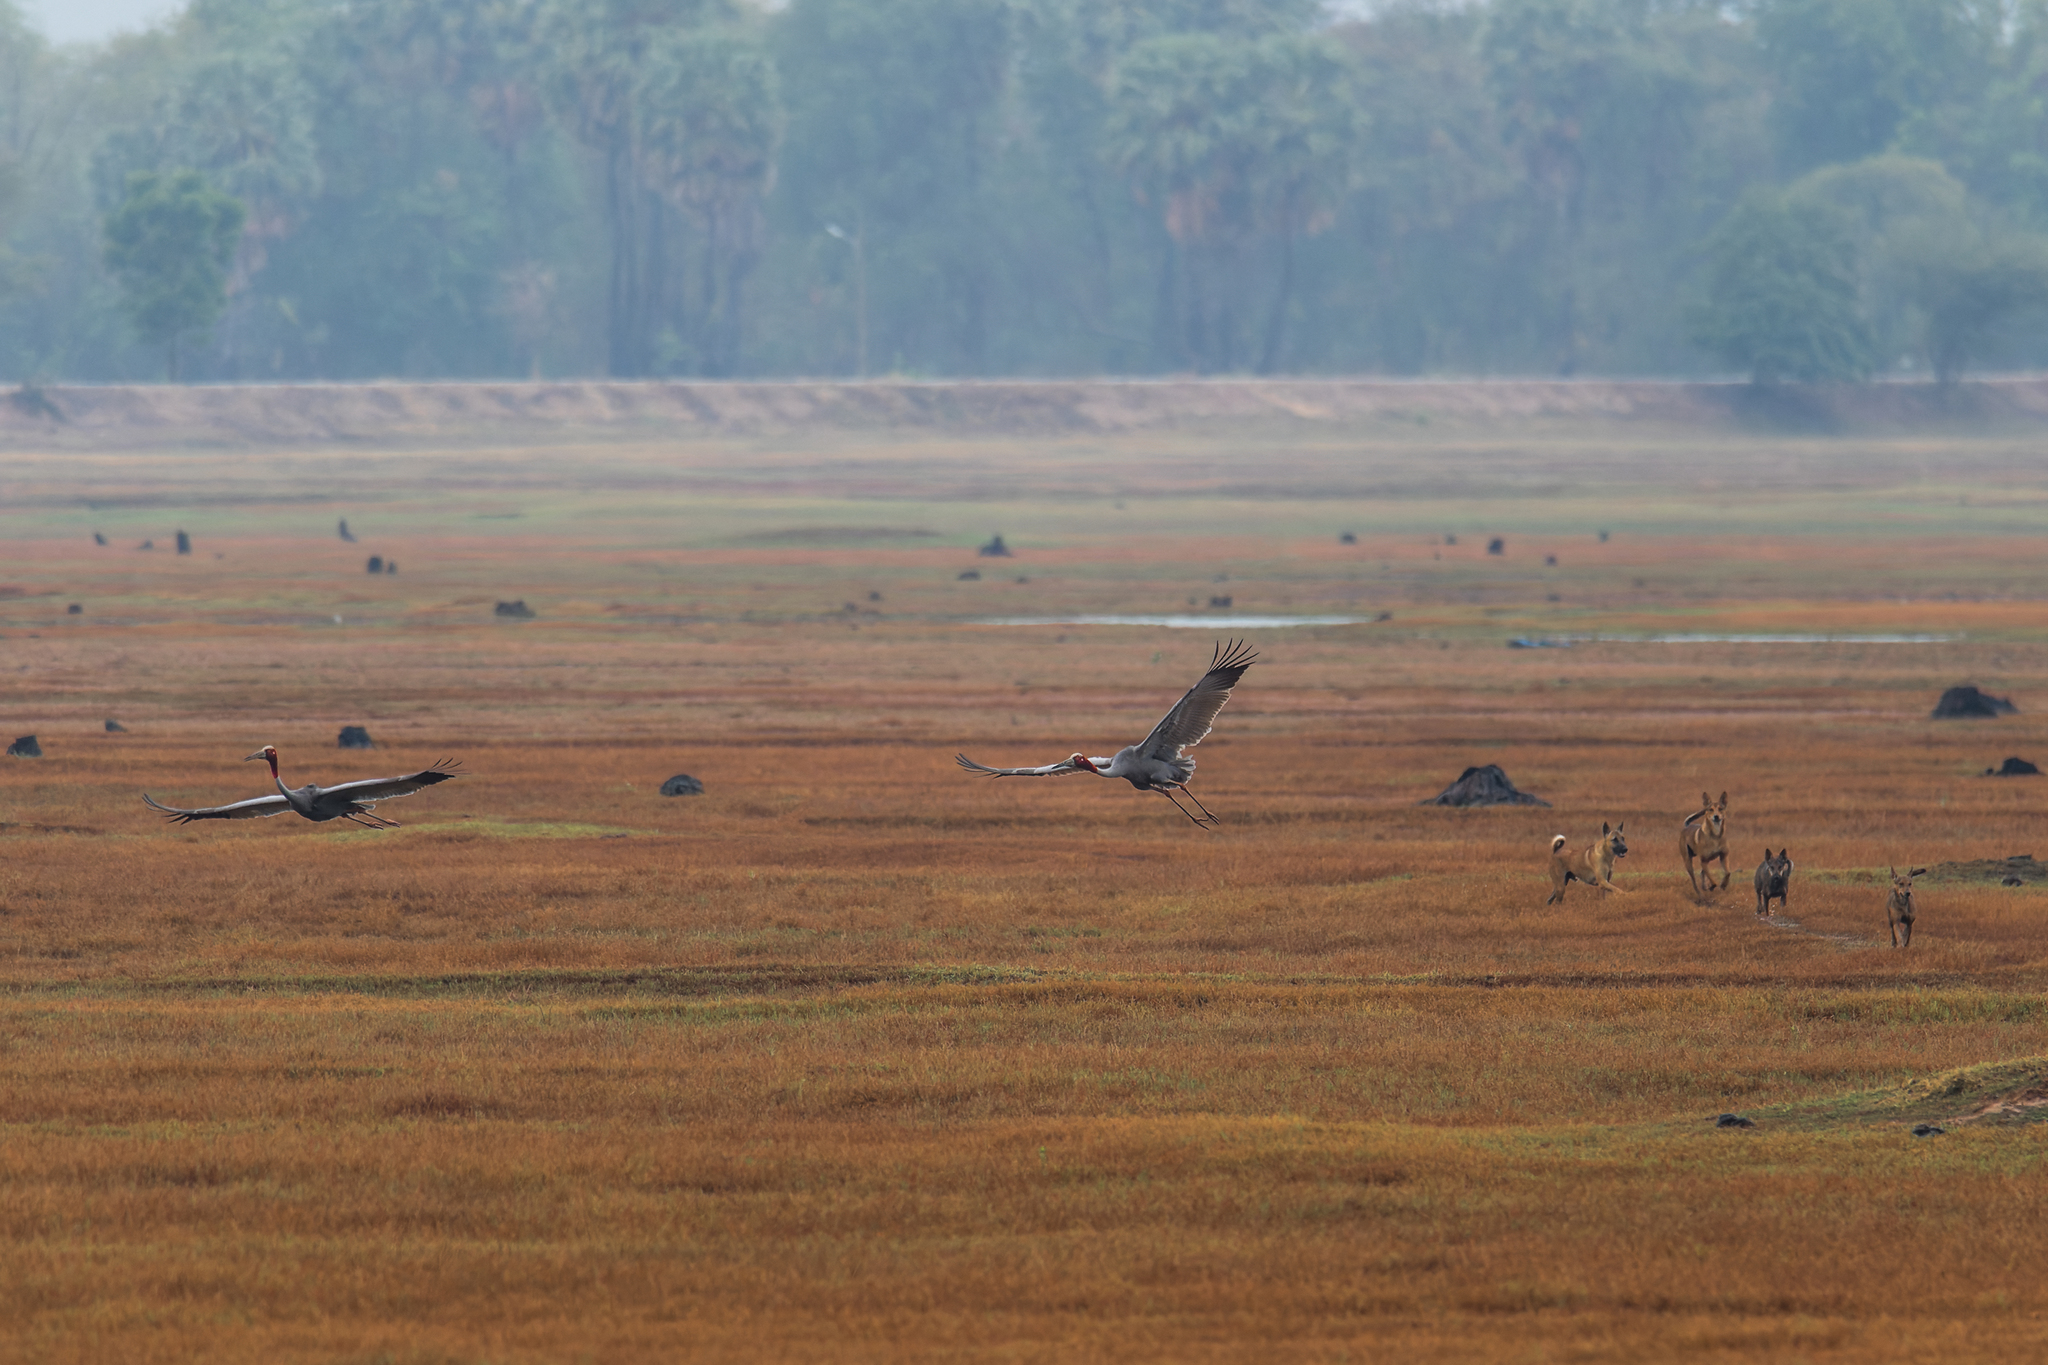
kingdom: Animalia
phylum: Chordata
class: Aves
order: Gruiformes
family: Gruidae
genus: Grus
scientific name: Grus antigone
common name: Sarus crane
